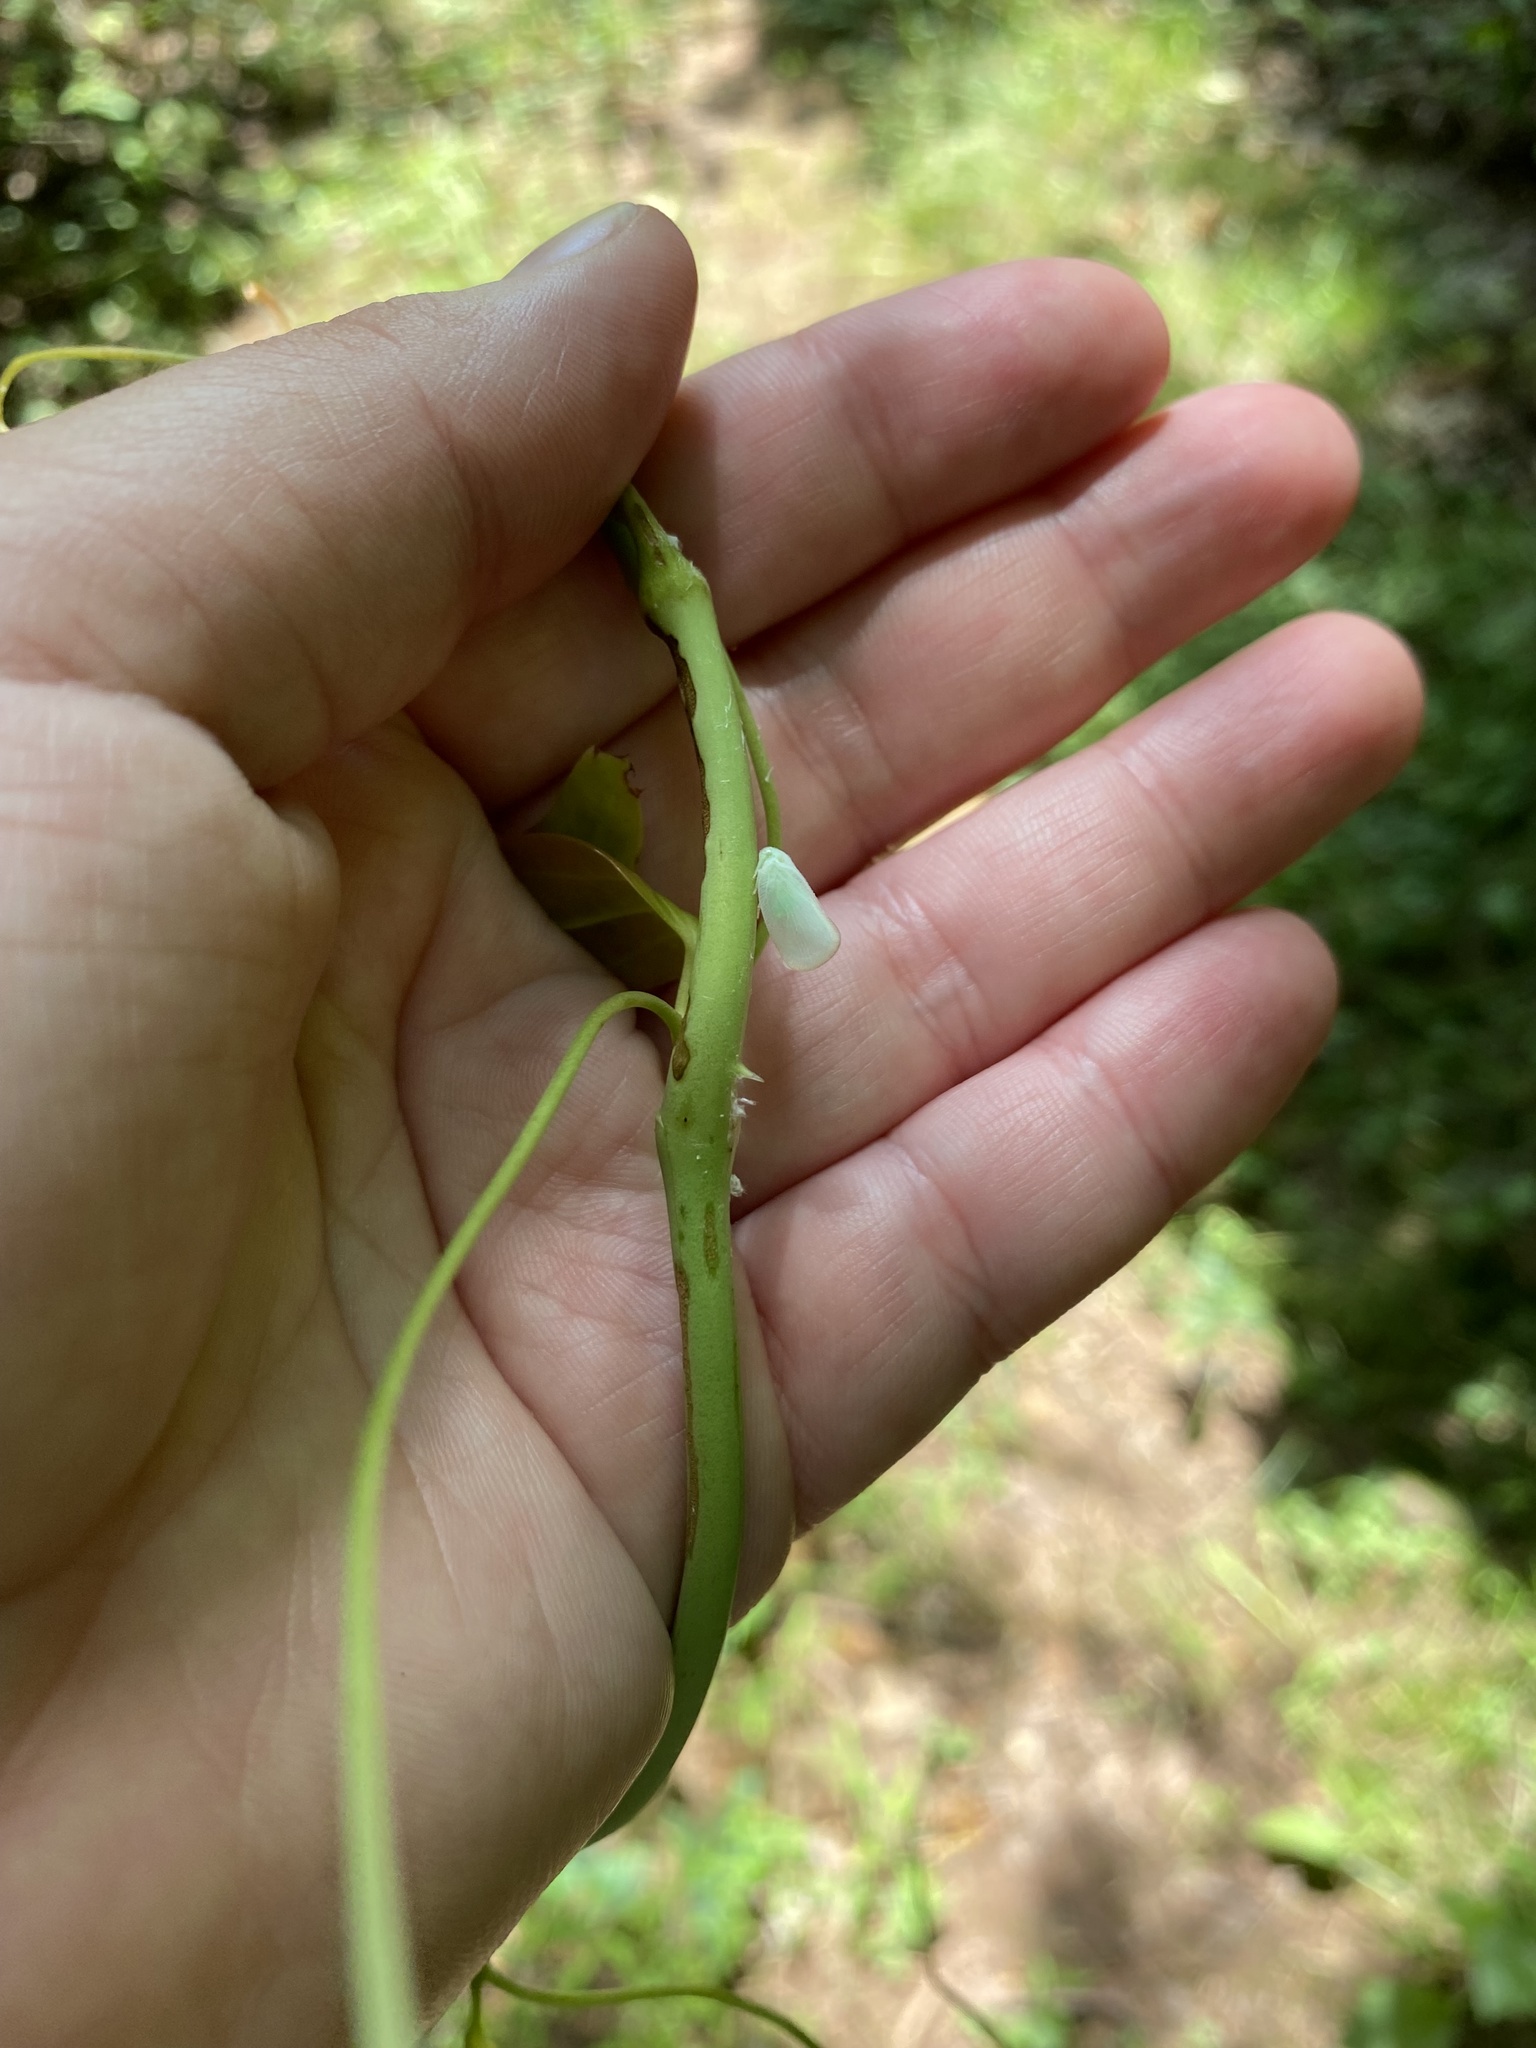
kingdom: Animalia
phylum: Arthropoda
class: Insecta
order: Hemiptera
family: Flatidae
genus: Ormenoides
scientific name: Ormenoides venusta
